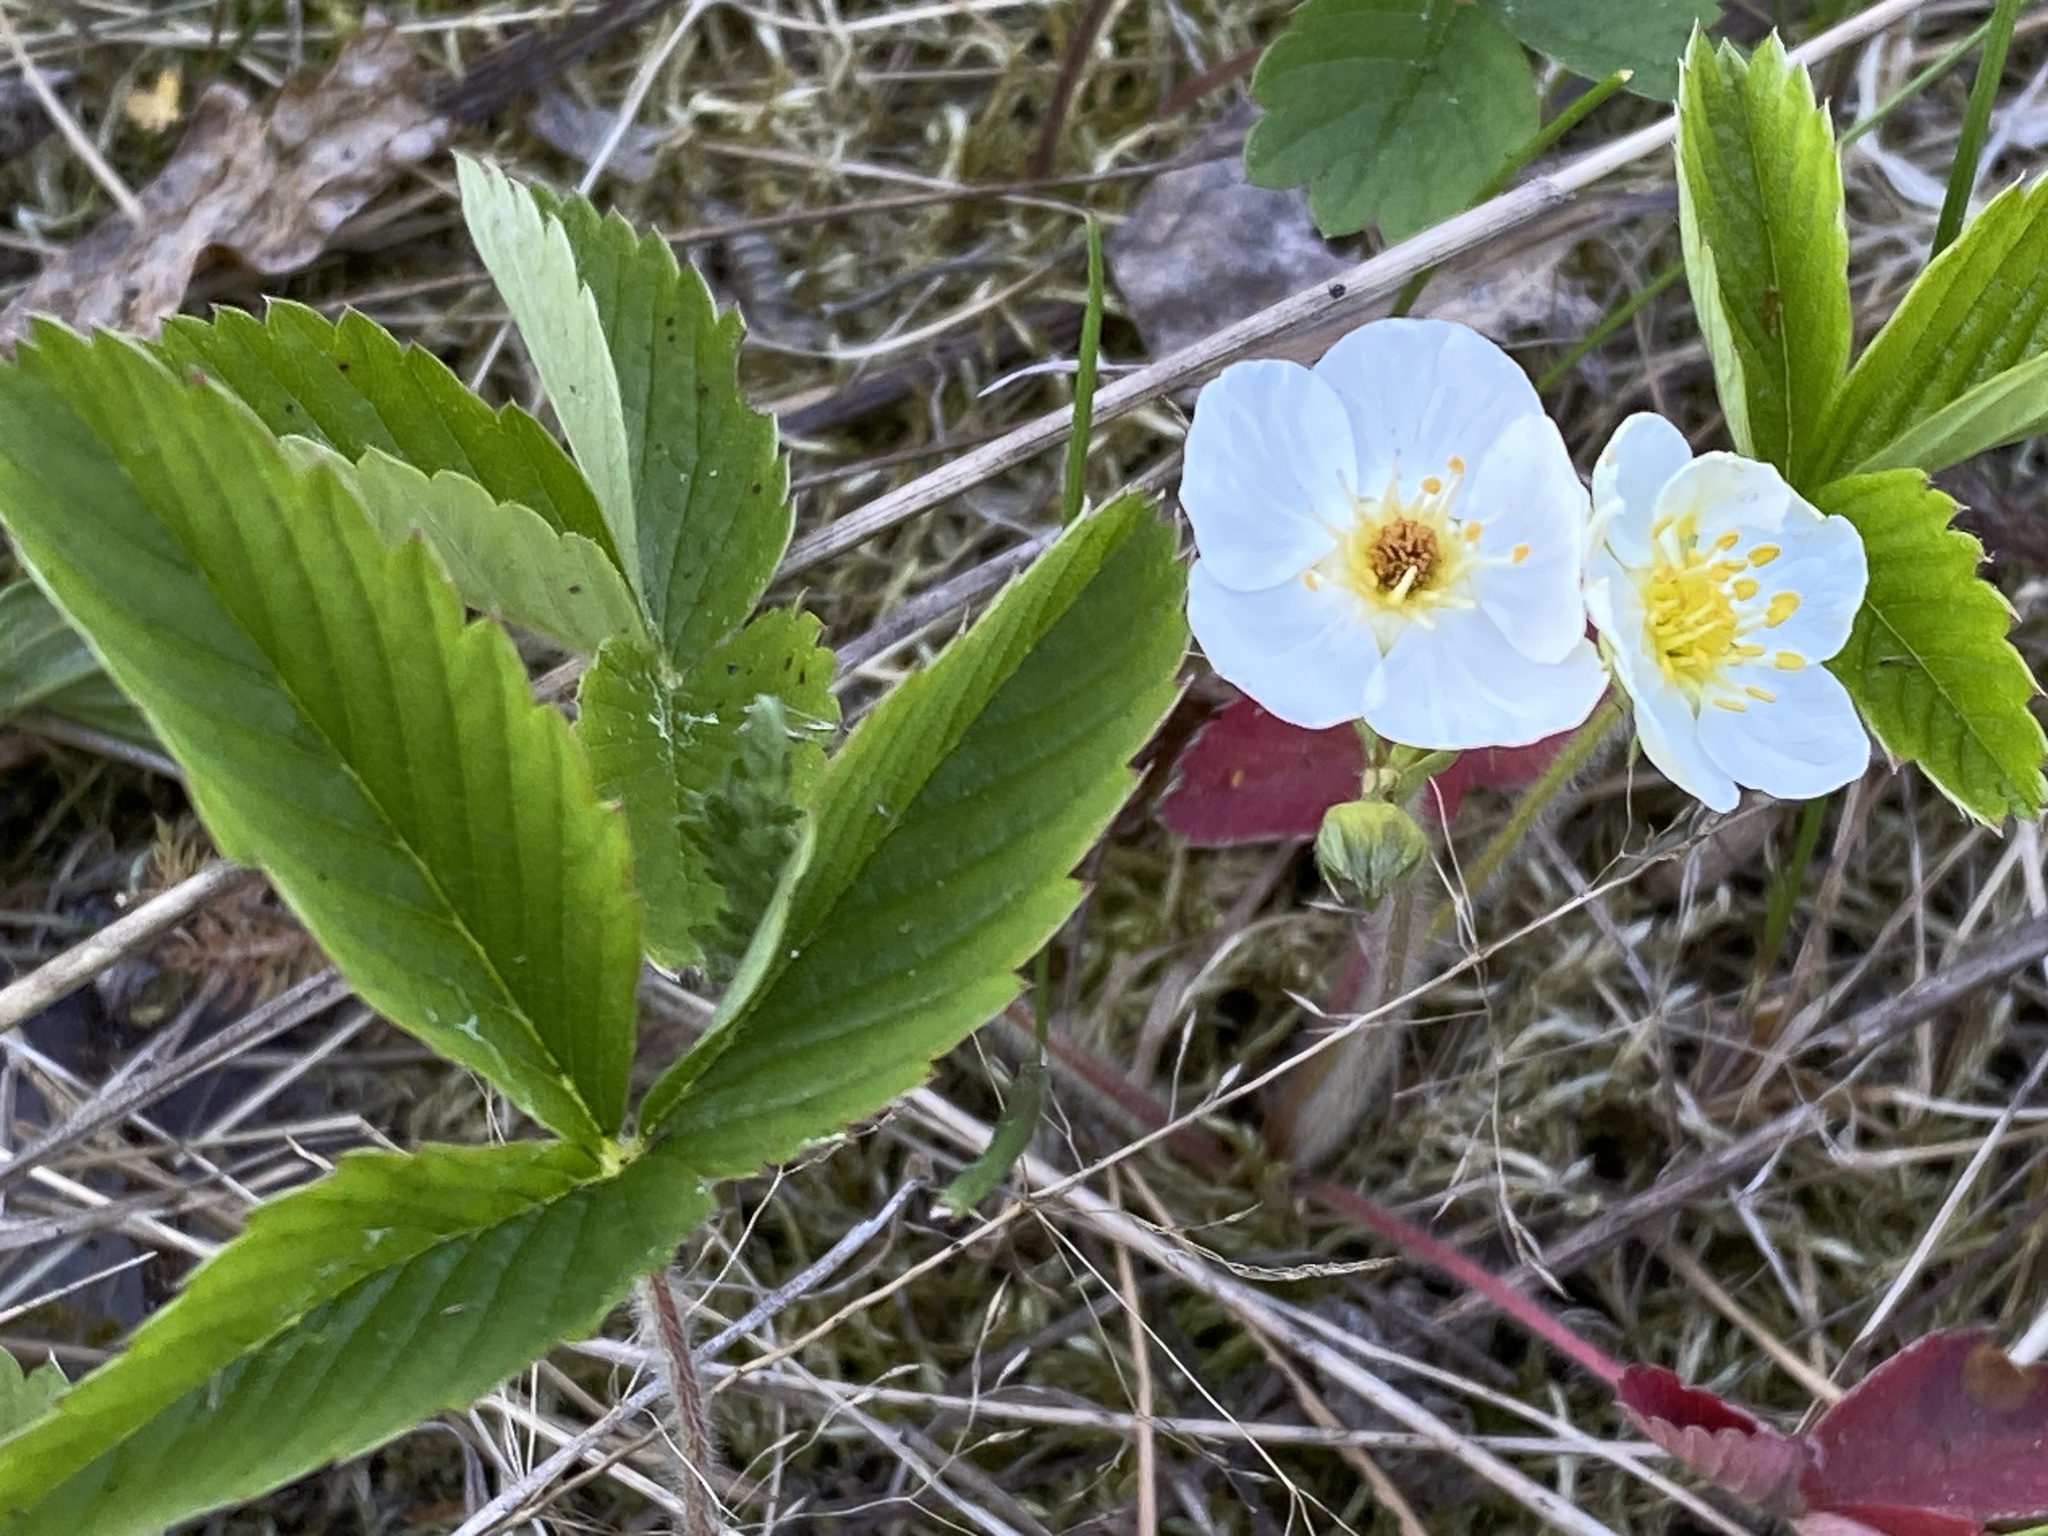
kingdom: Plantae
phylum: Tracheophyta
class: Magnoliopsida
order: Rosales
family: Rosaceae
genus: Fragaria
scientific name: Fragaria viridis
